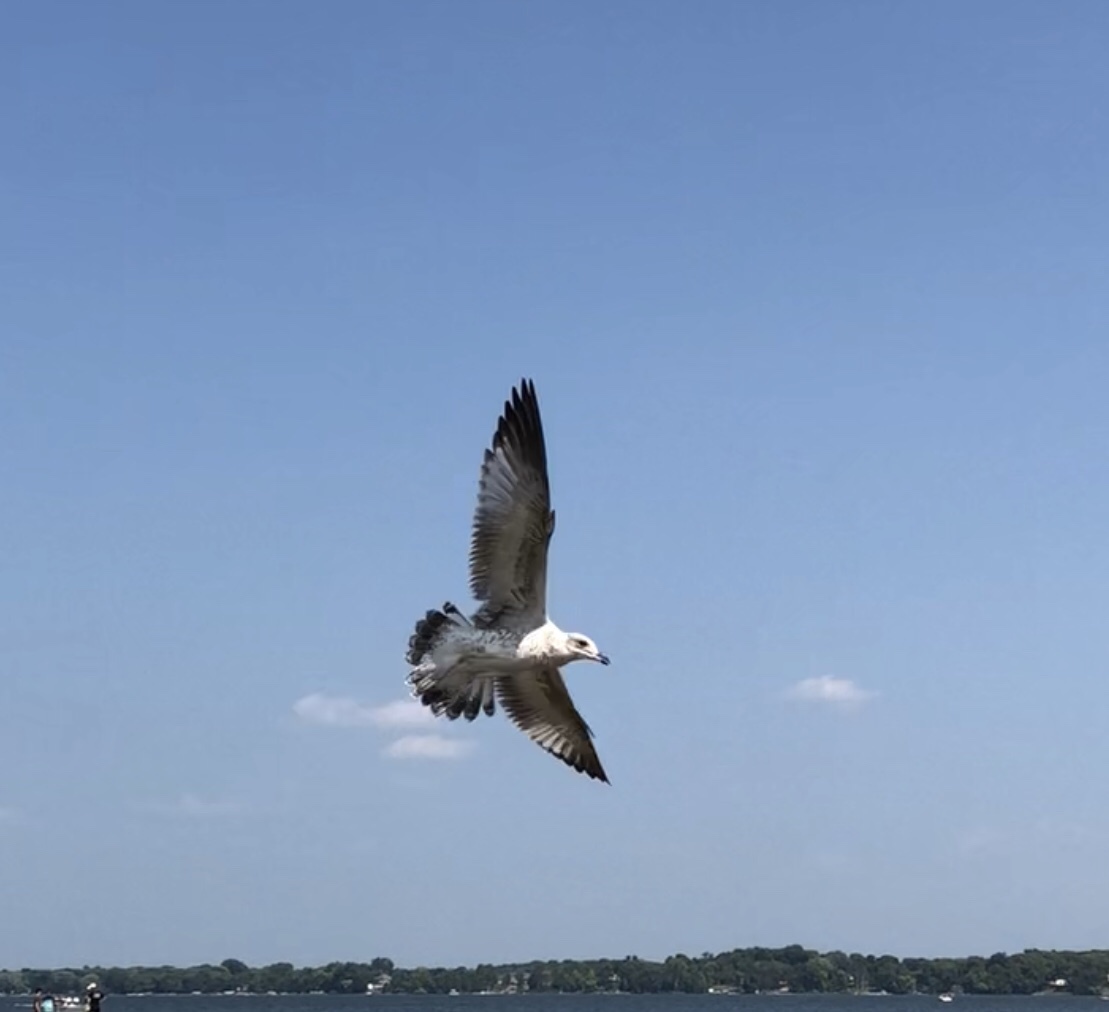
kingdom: Animalia
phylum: Chordata
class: Aves
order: Charadriiformes
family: Laridae
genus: Larus
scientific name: Larus delawarensis
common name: Ring-billed gull
